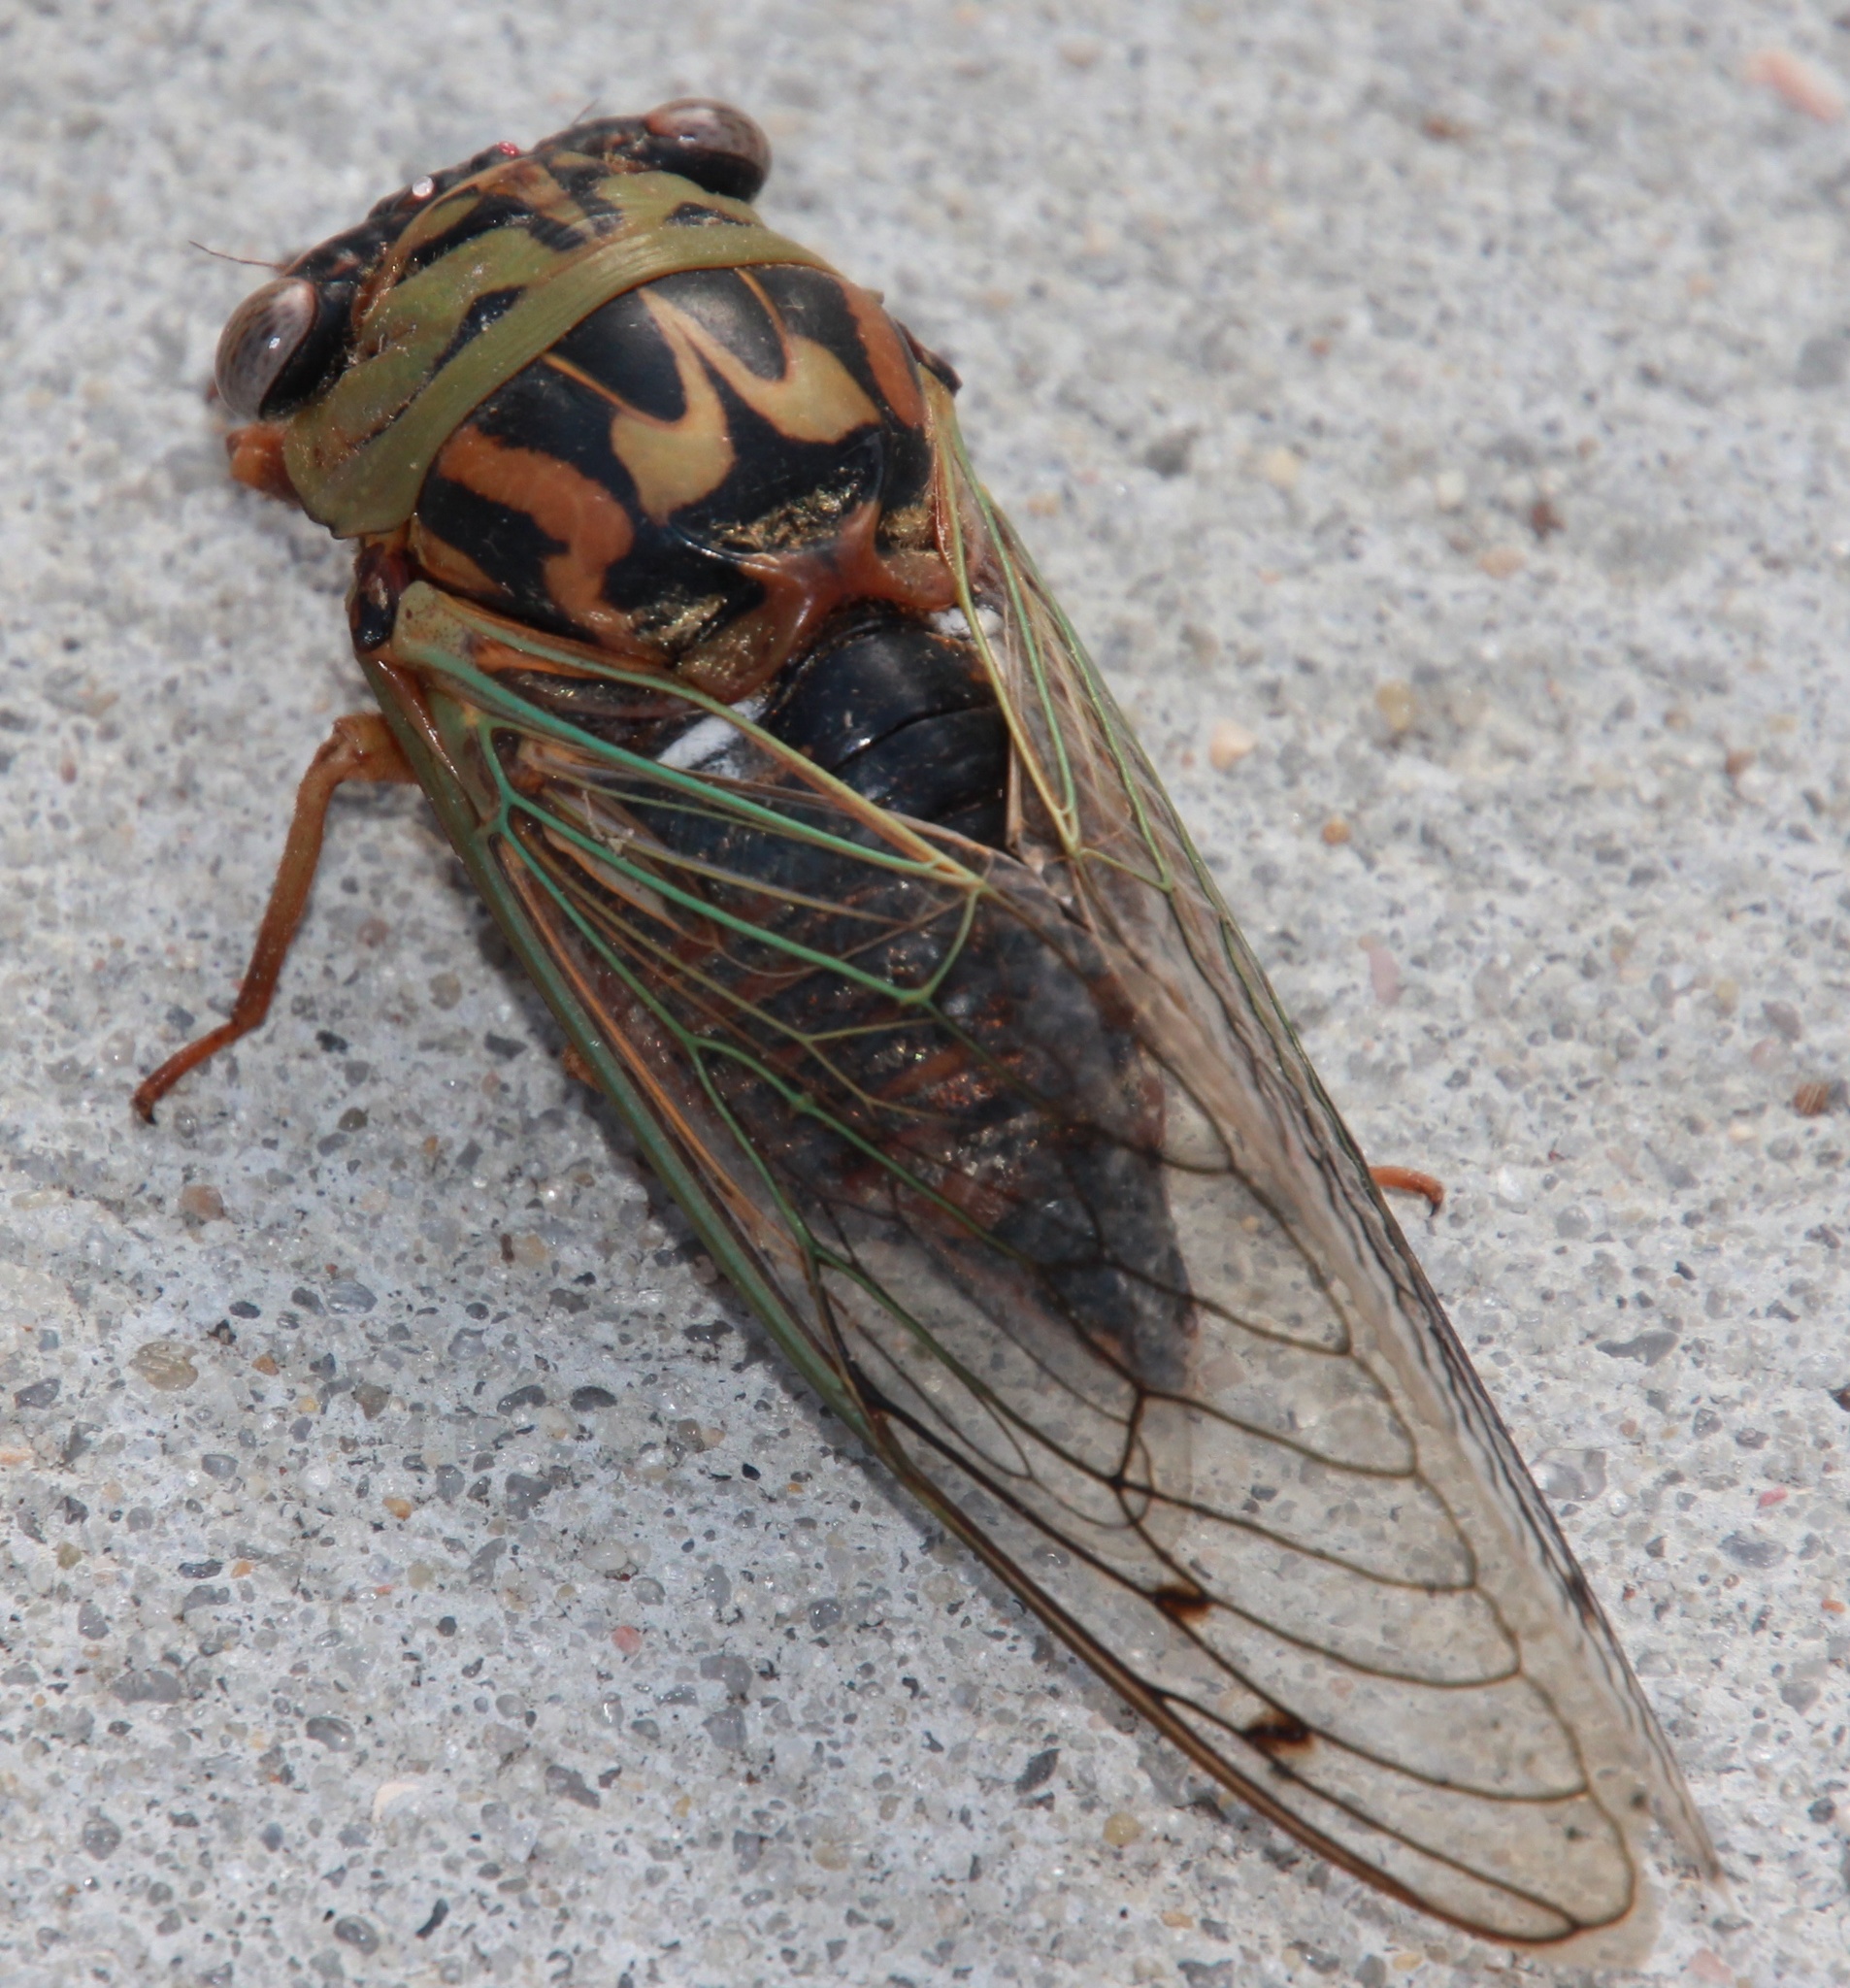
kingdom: Animalia
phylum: Arthropoda
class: Insecta
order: Hemiptera
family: Cicadidae
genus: Megatibicen
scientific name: Megatibicen resh
